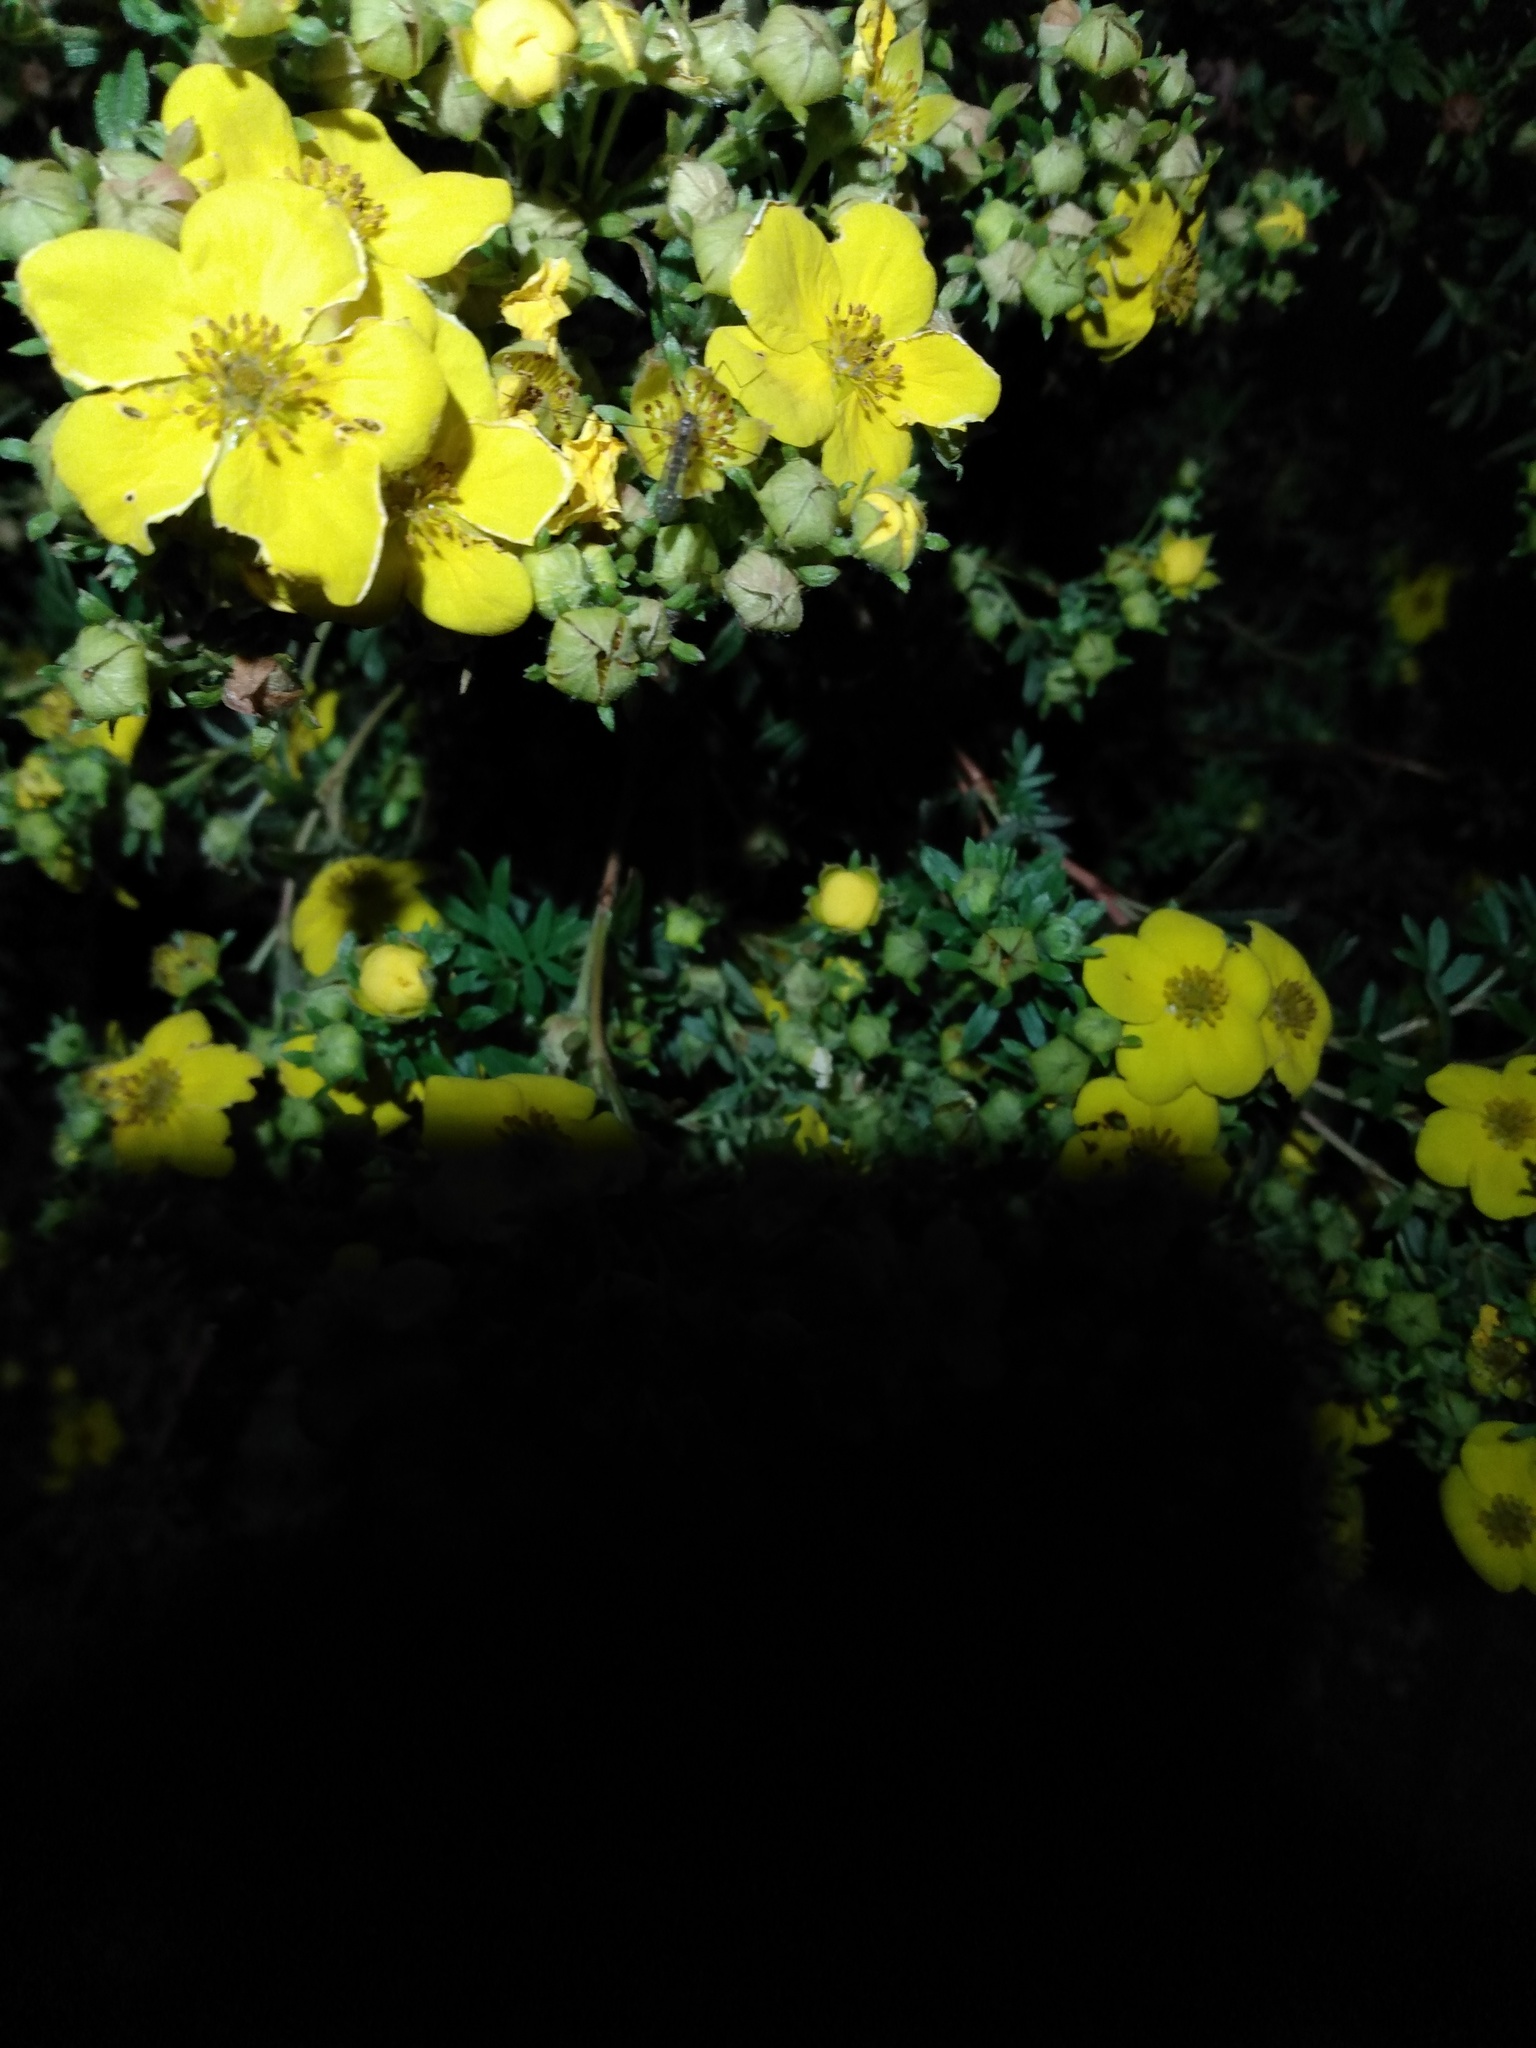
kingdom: Plantae
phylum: Tracheophyta
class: Magnoliopsida
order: Rosales
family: Rosaceae
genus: Dasiphora
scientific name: Dasiphora fruticosa
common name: Shrubby cinquefoil
